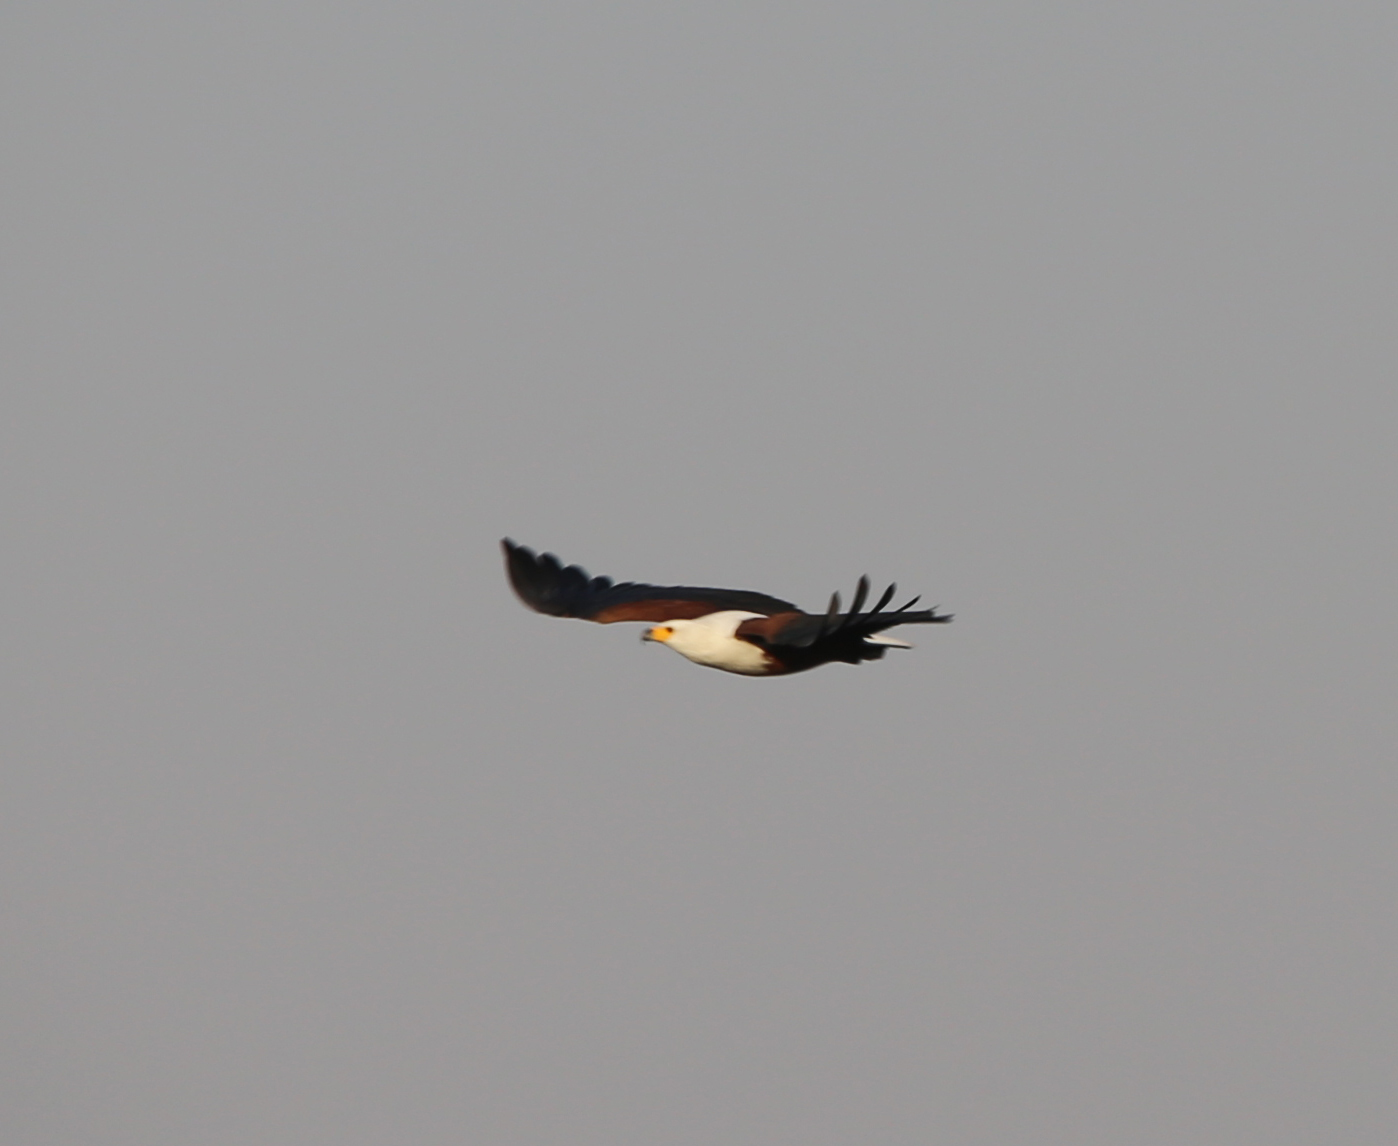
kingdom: Animalia
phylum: Chordata
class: Aves
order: Accipitriformes
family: Accipitridae
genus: Haliaeetus
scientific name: Haliaeetus vocifer
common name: African fish eagle
